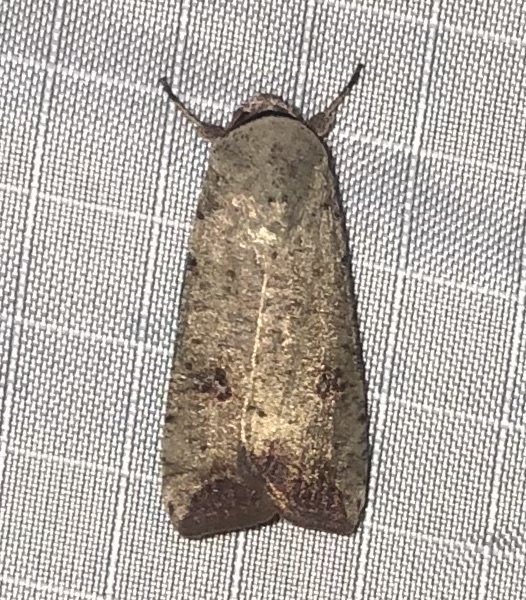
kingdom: Animalia
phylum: Arthropoda
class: Insecta
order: Lepidoptera
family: Noctuidae
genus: Anicla
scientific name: Anicla infecta
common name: Green cutworm
